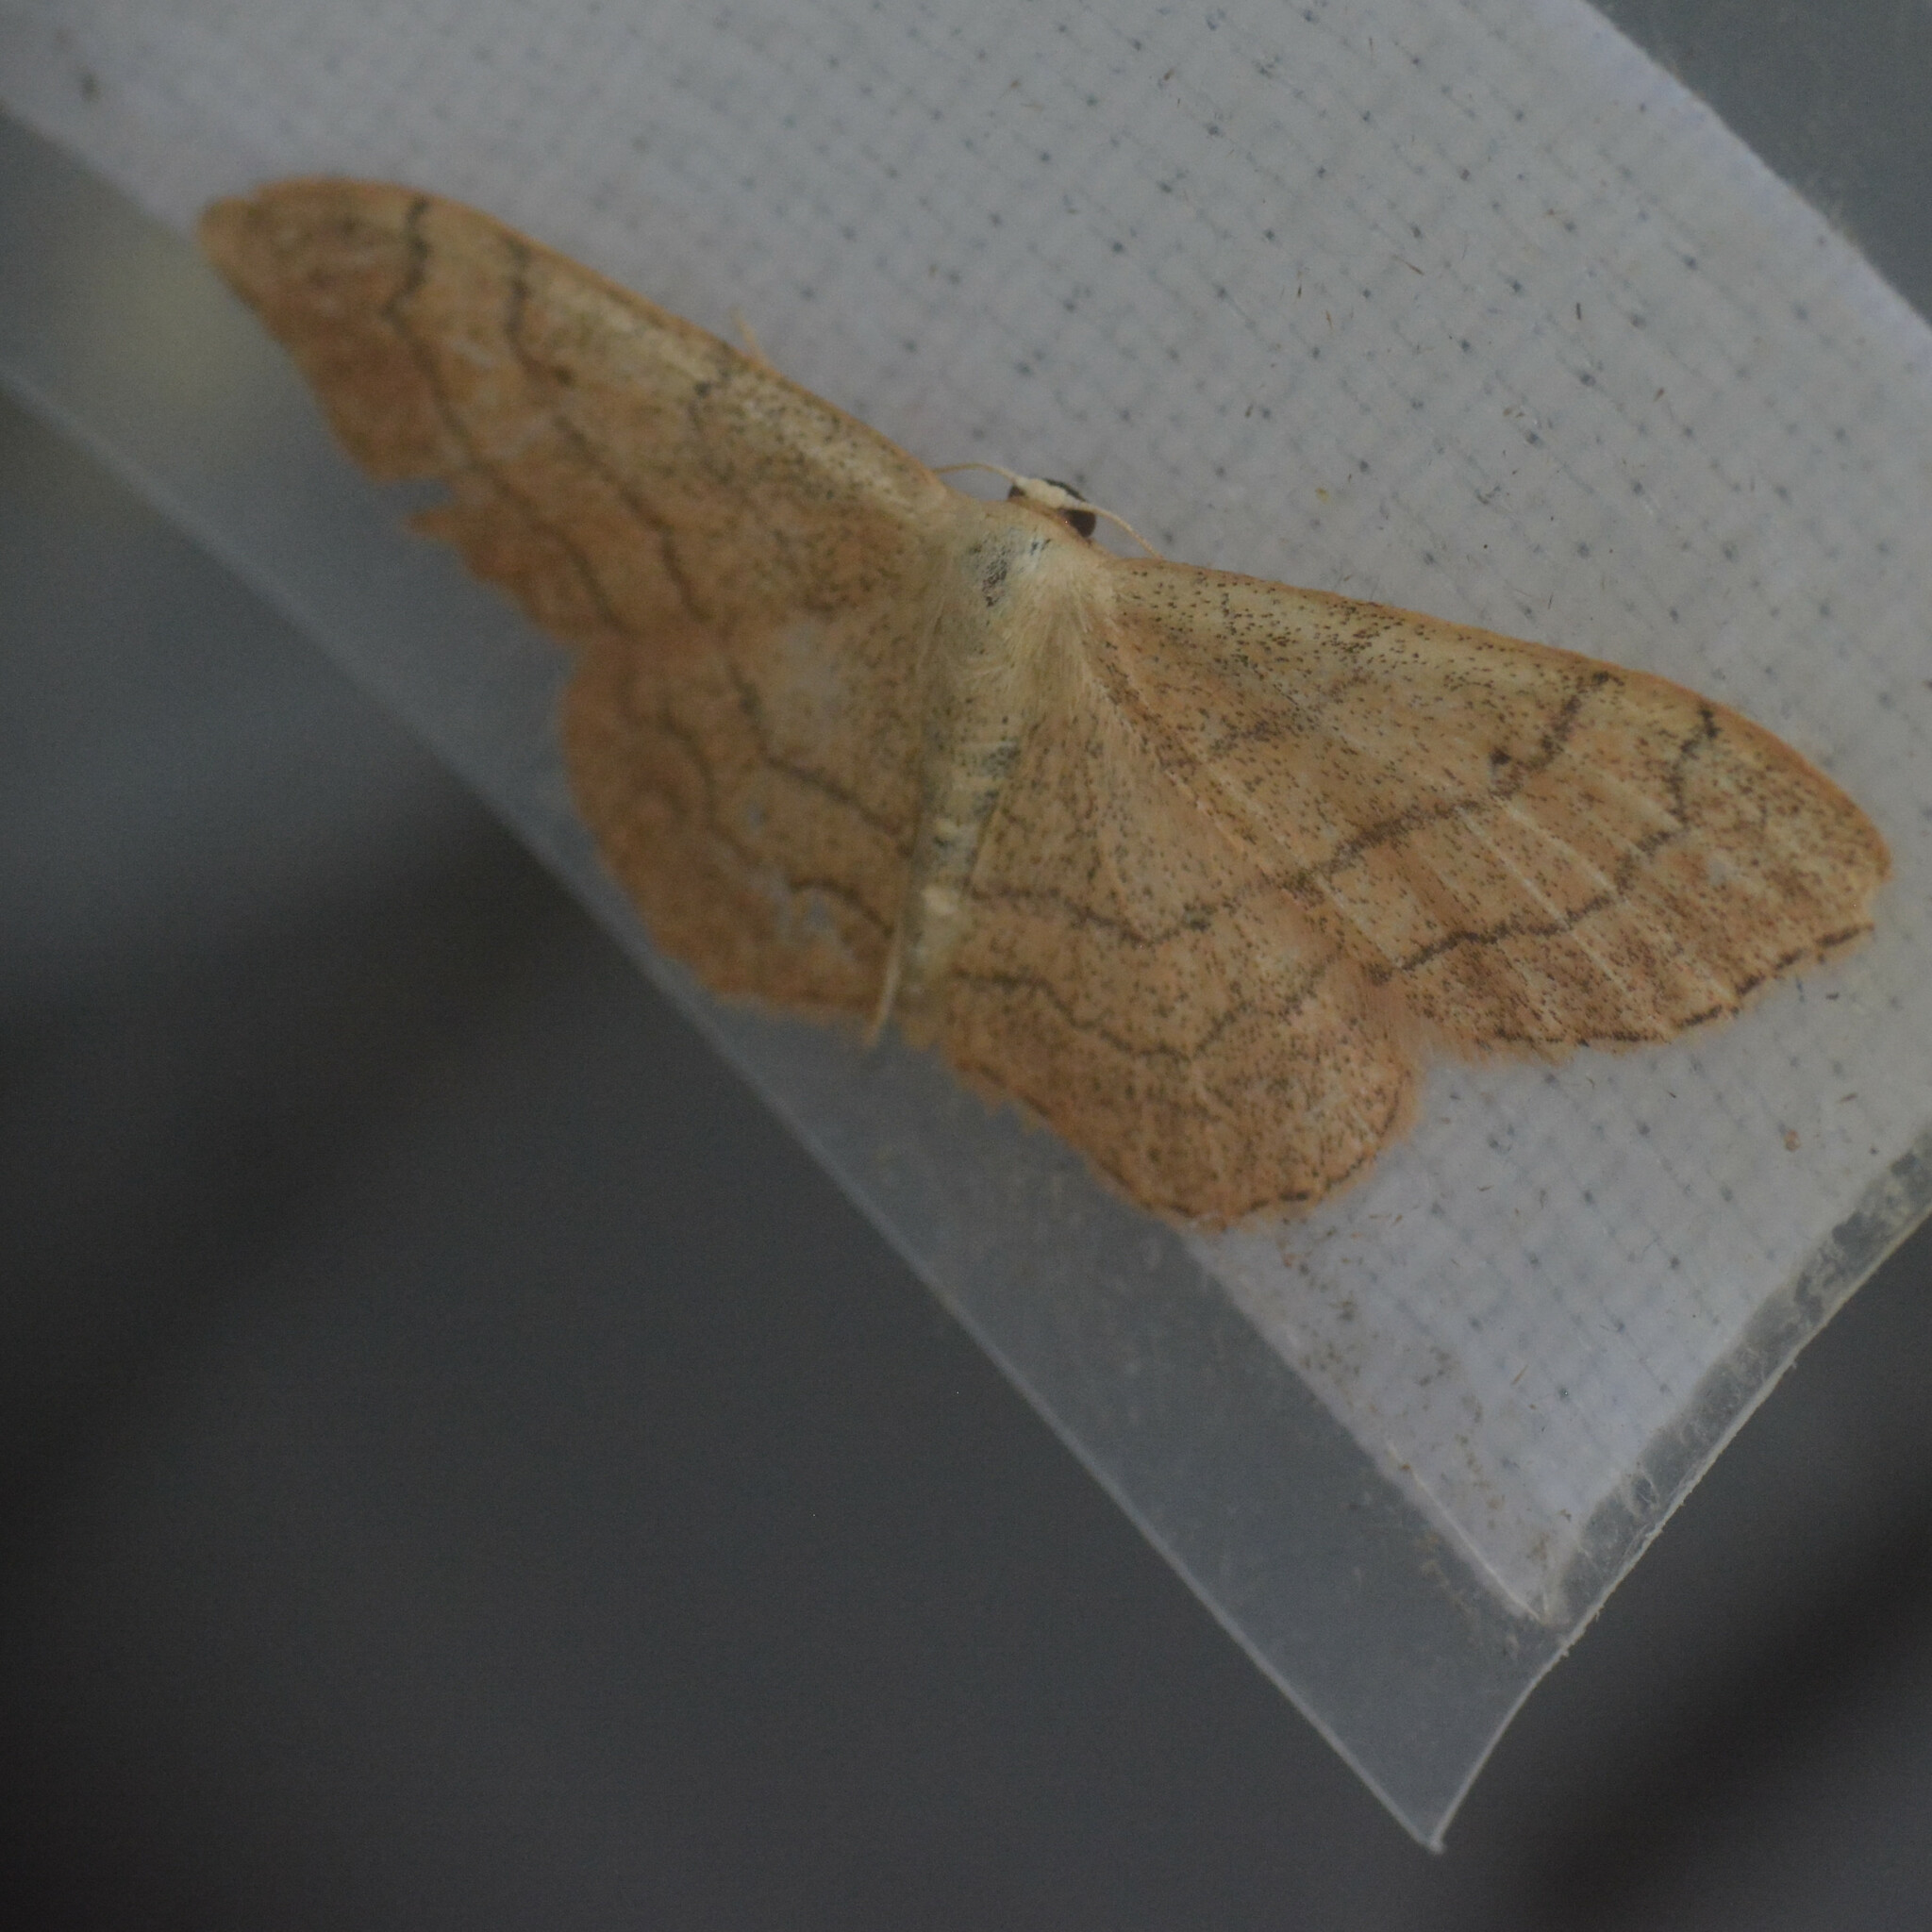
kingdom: Animalia
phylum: Arthropoda
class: Insecta
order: Lepidoptera
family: Geometridae
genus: Idaea
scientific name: Idaea aversata
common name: Riband wave
